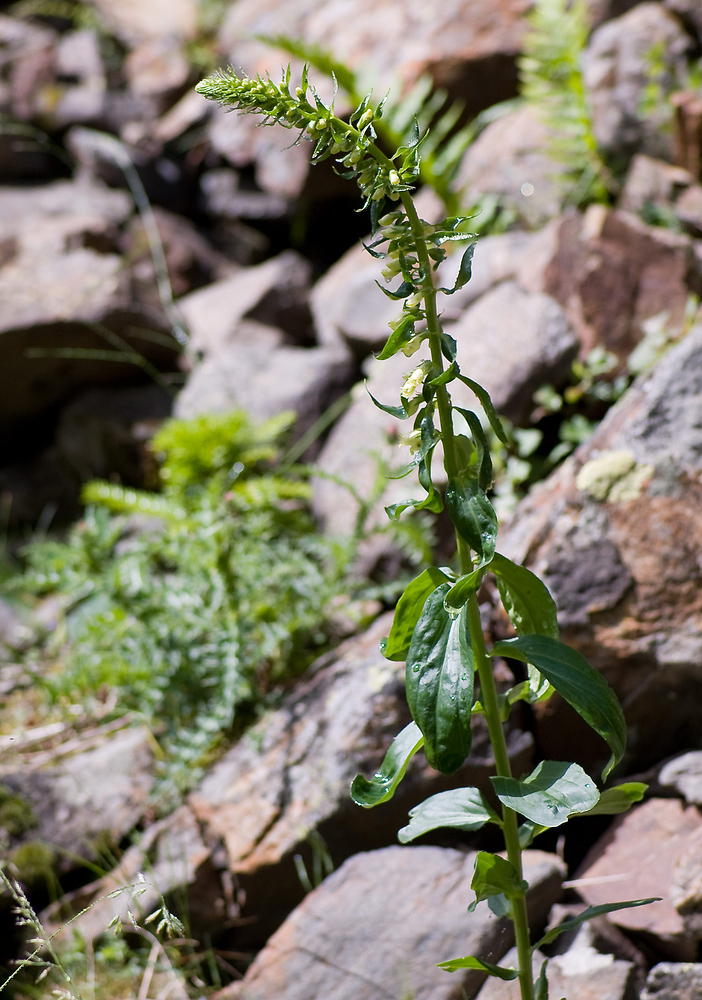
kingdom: Plantae
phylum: Tracheophyta
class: Magnoliopsida
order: Lamiales
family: Plantaginaceae
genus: Digitalis
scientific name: Digitalis lutea
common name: Straw foxglove
